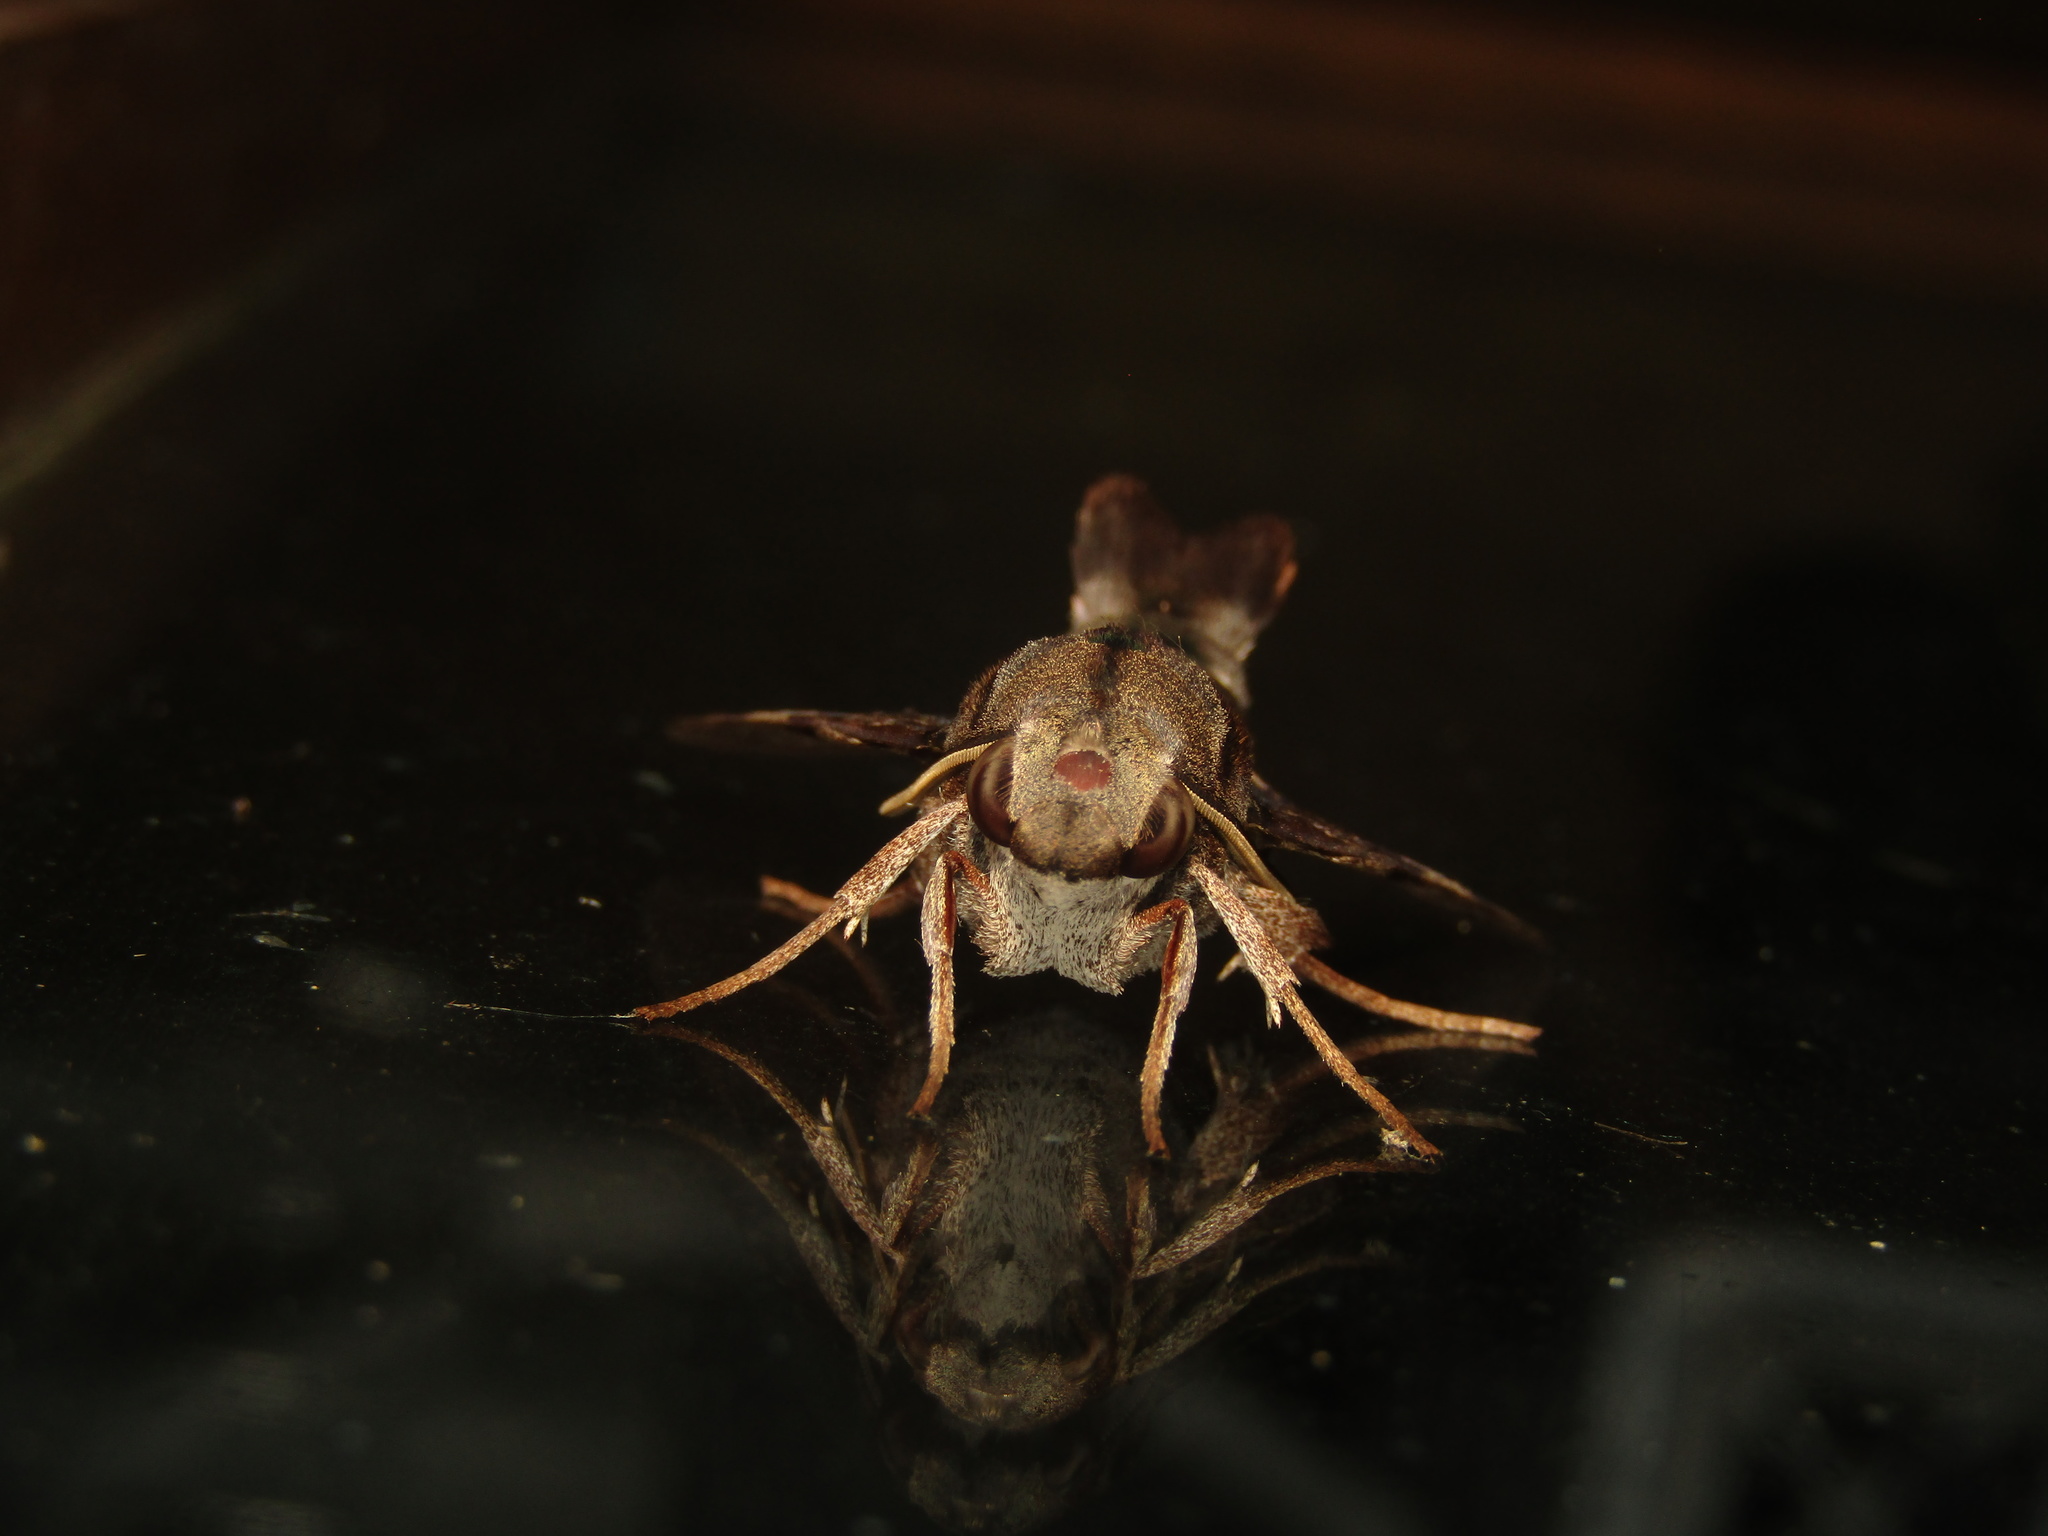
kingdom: Animalia
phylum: Arthropoda
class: Insecta
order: Lepidoptera
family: Sphingidae
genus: Macroglossum
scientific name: Macroglossum errans
